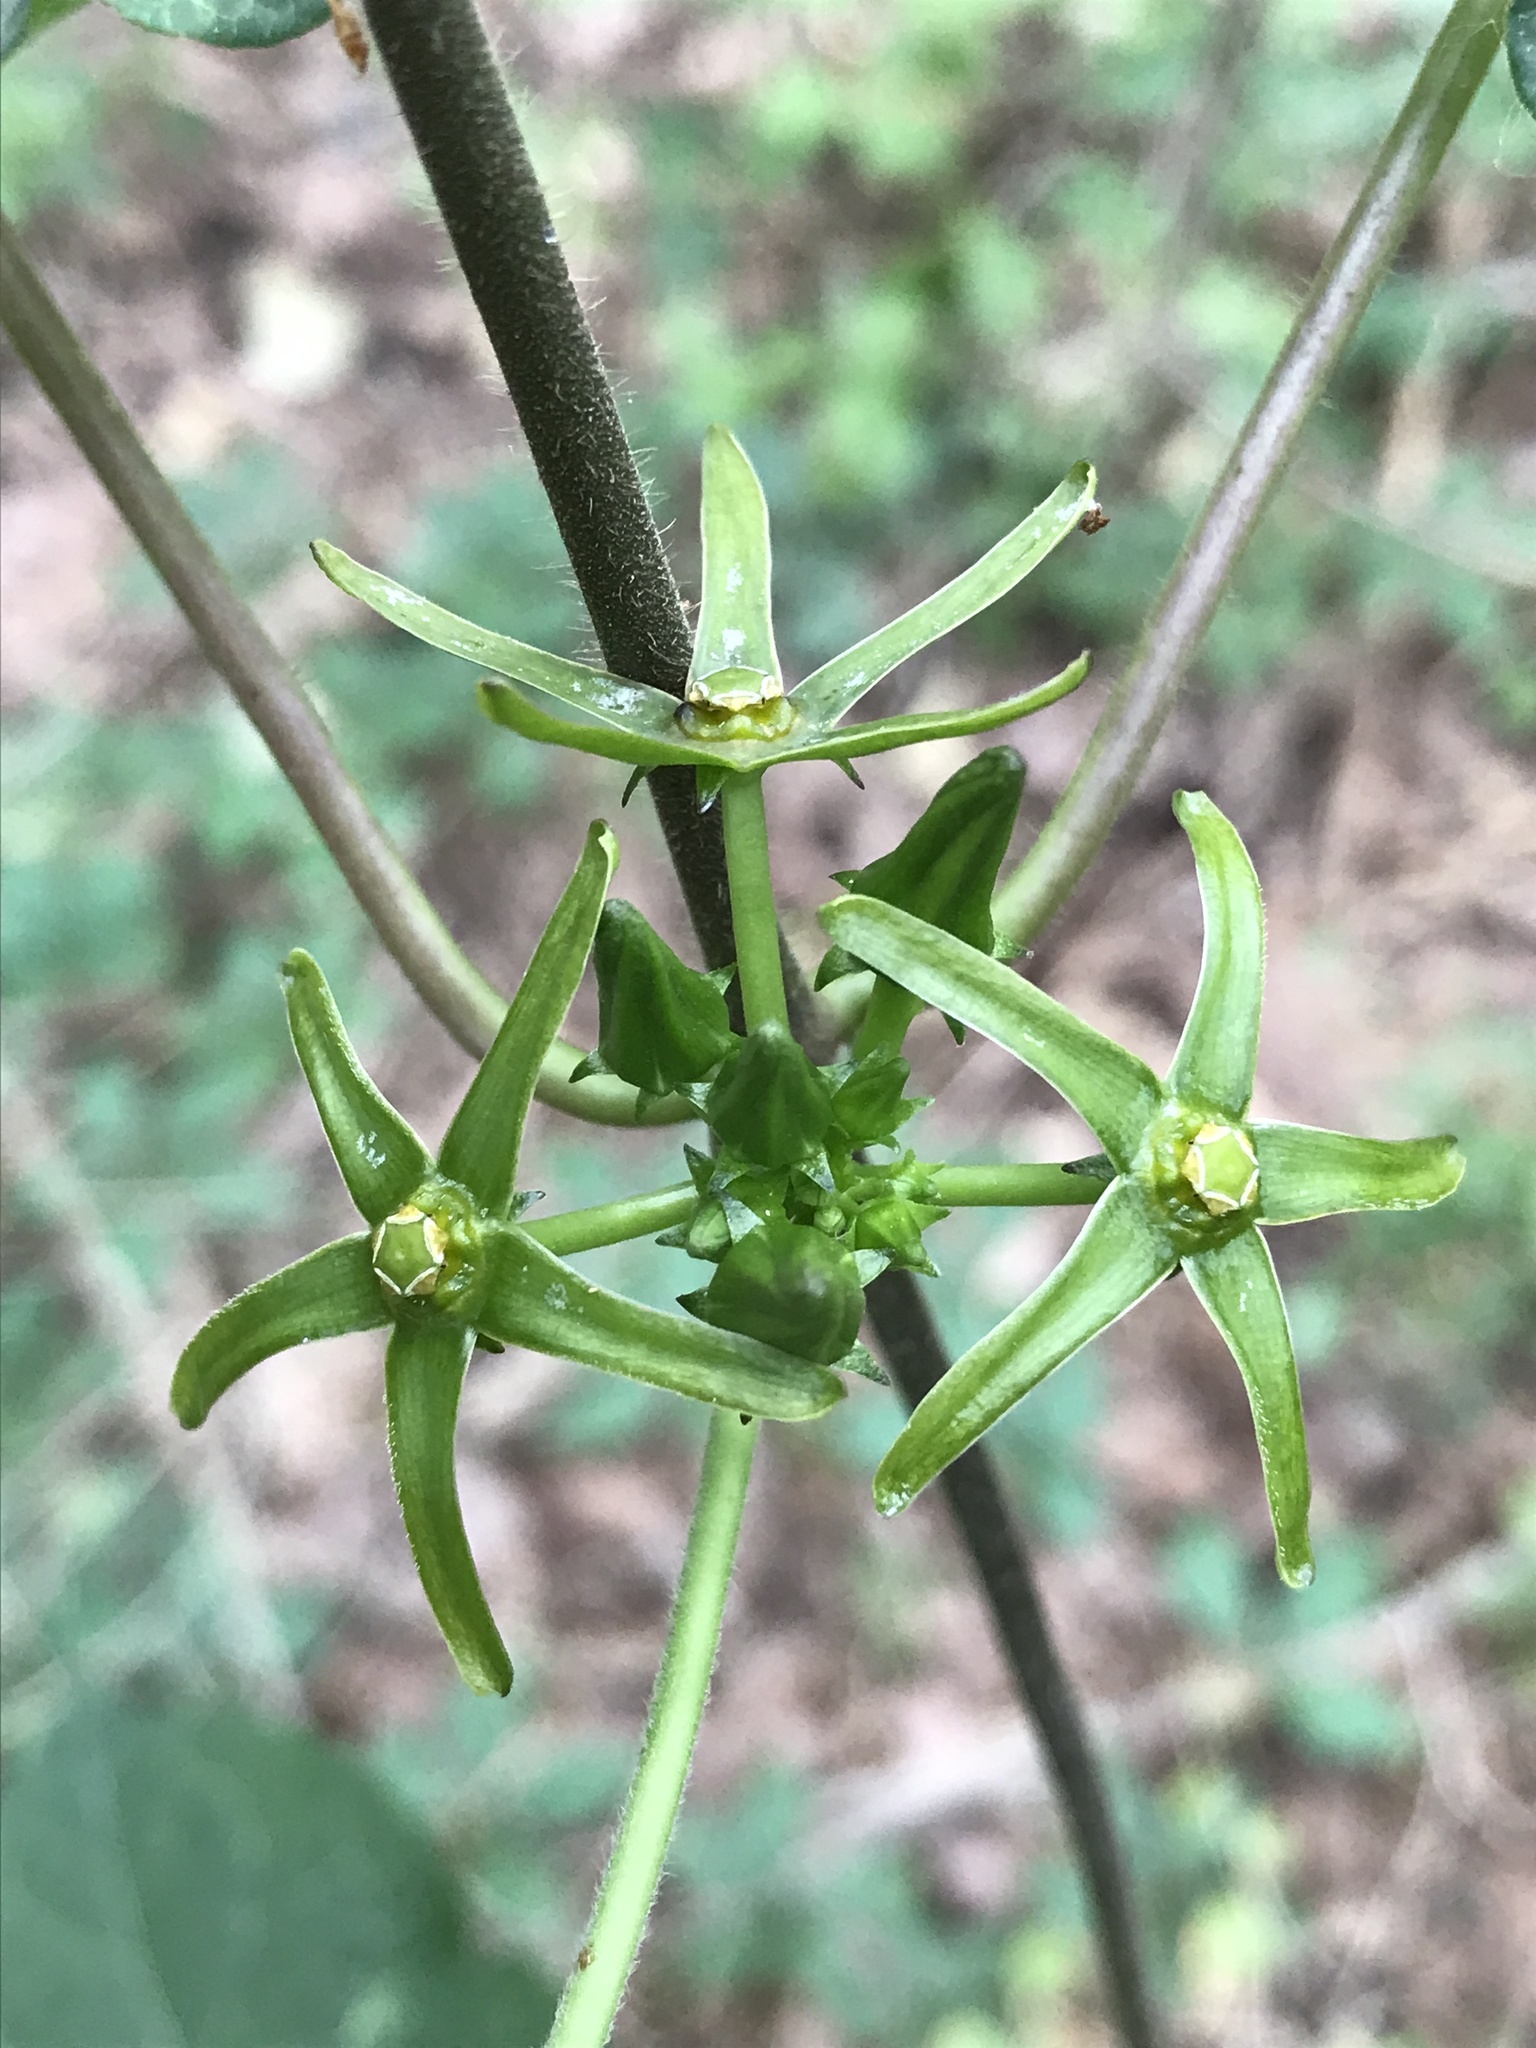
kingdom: Plantae
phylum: Tracheophyta
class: Magnoliopsida
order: Gentianales
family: Apocynaceae
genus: Gonolobus
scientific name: Gonolobus suberosus
